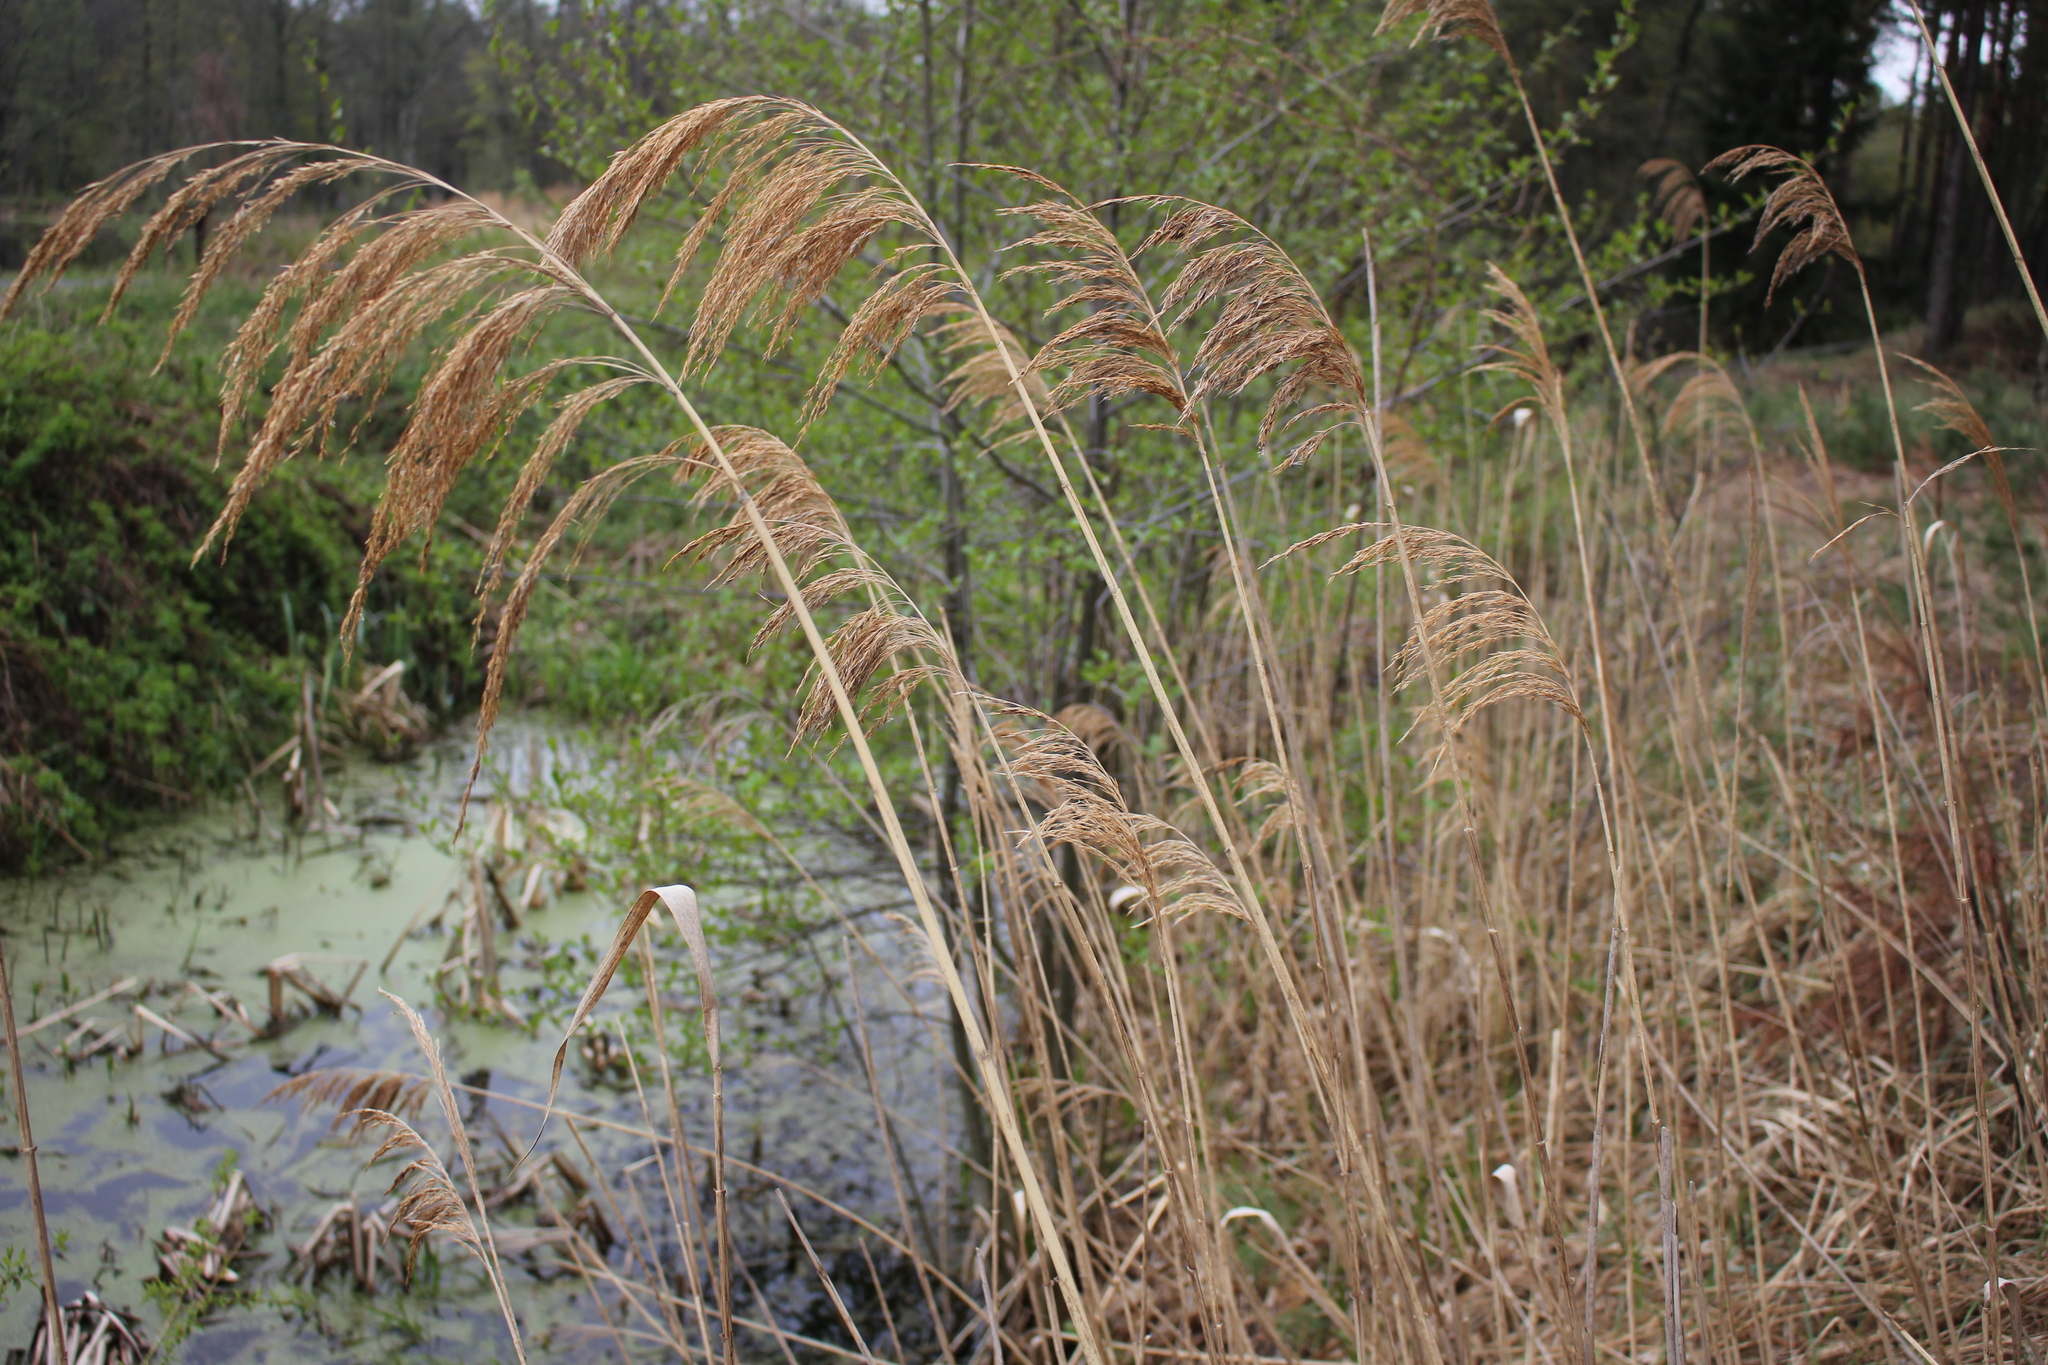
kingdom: Plantae
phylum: Tracheophyta
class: Liliopsida
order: Poales
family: Poaceae
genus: Phragmites
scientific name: Phragmites australis
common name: Common reed
